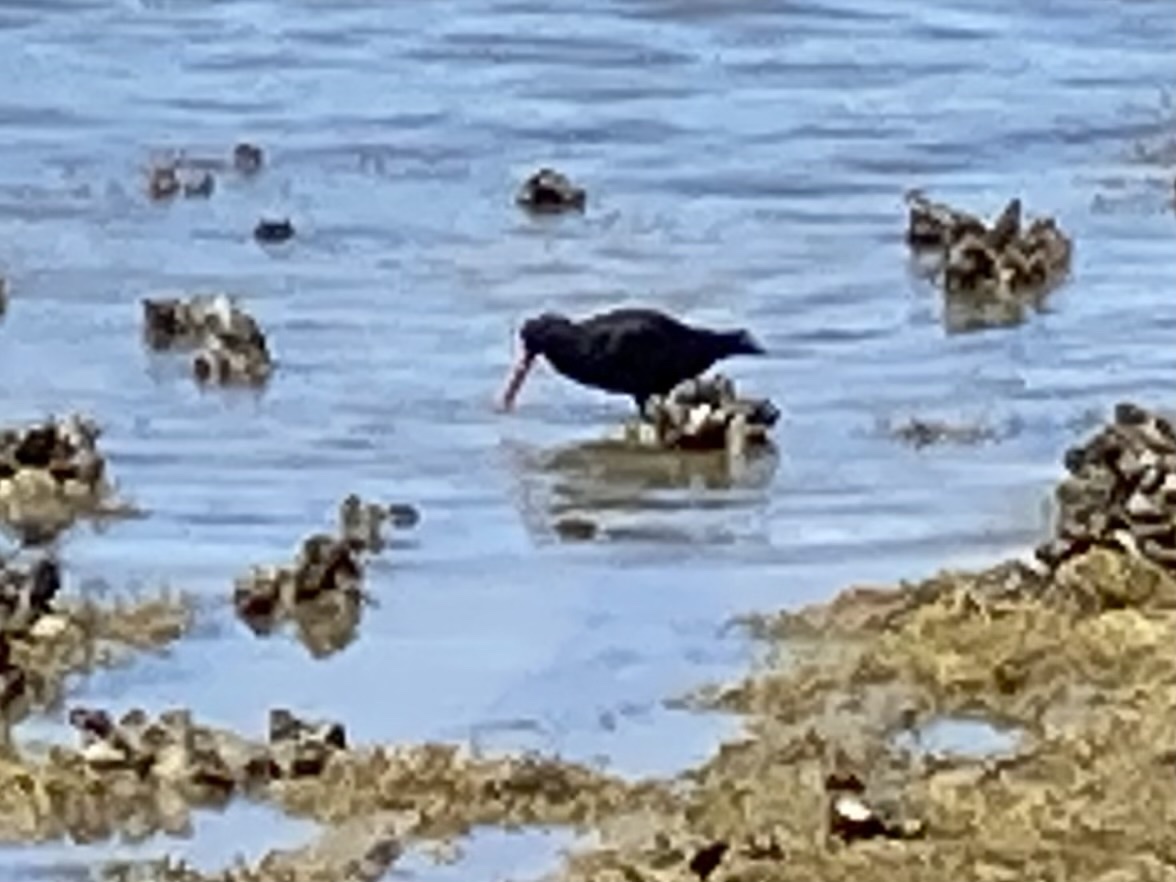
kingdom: Animalia
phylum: Chordata
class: Aves
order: Charadriiformes
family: Haematopodidae
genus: Haematopus
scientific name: Haematopus unicolor
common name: Variable oystercatcher
